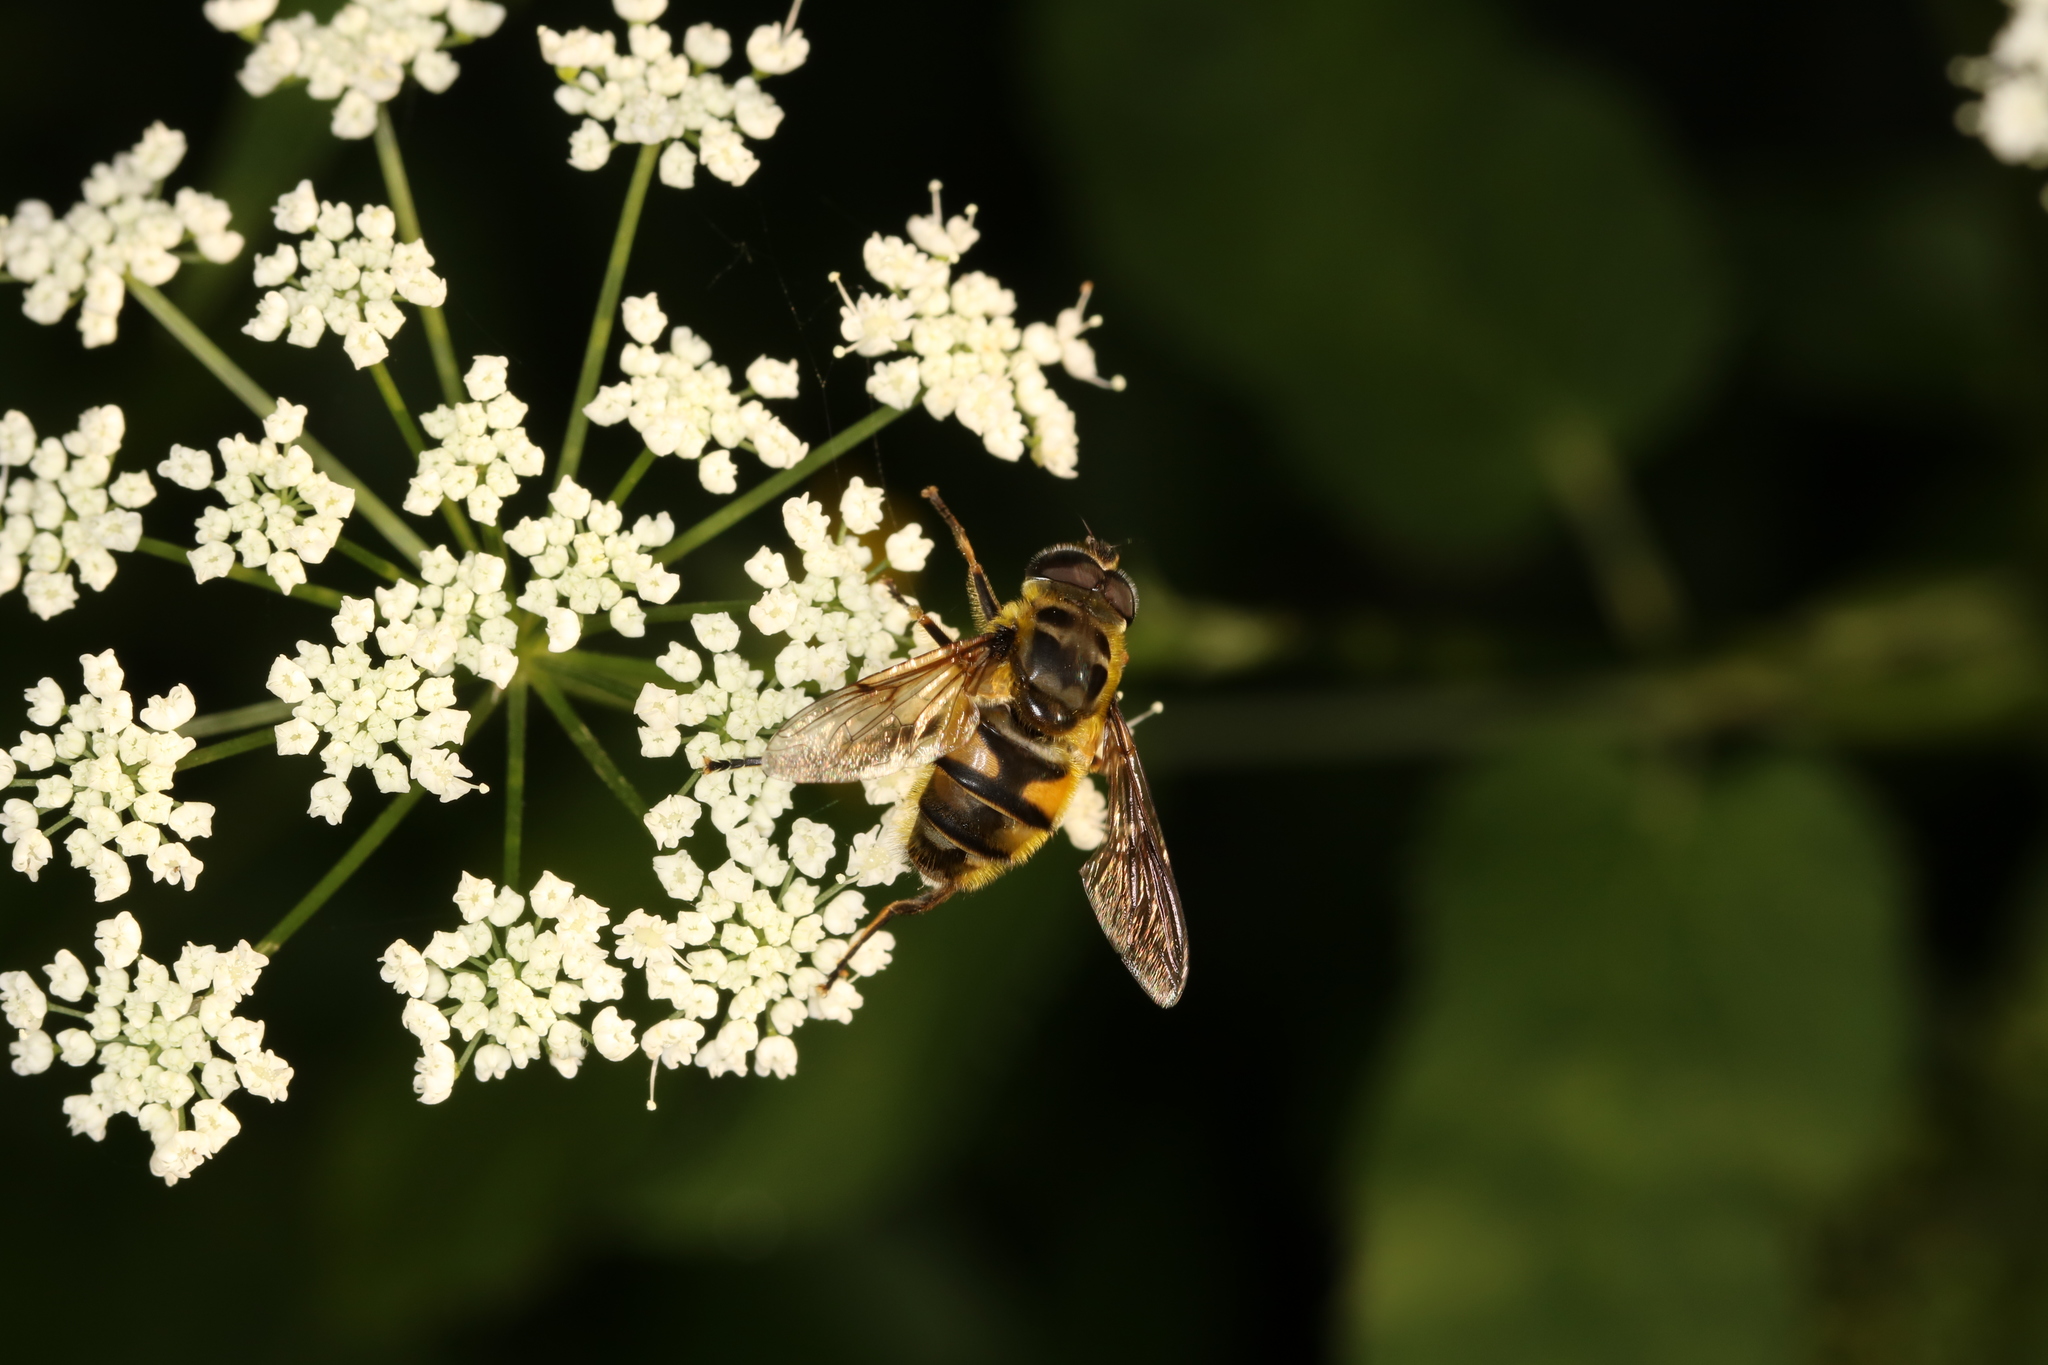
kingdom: Animalia
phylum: Arthropoda
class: Insecta
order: Diptera
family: Syrphidae
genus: Myathropa
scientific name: Myathropa florea
